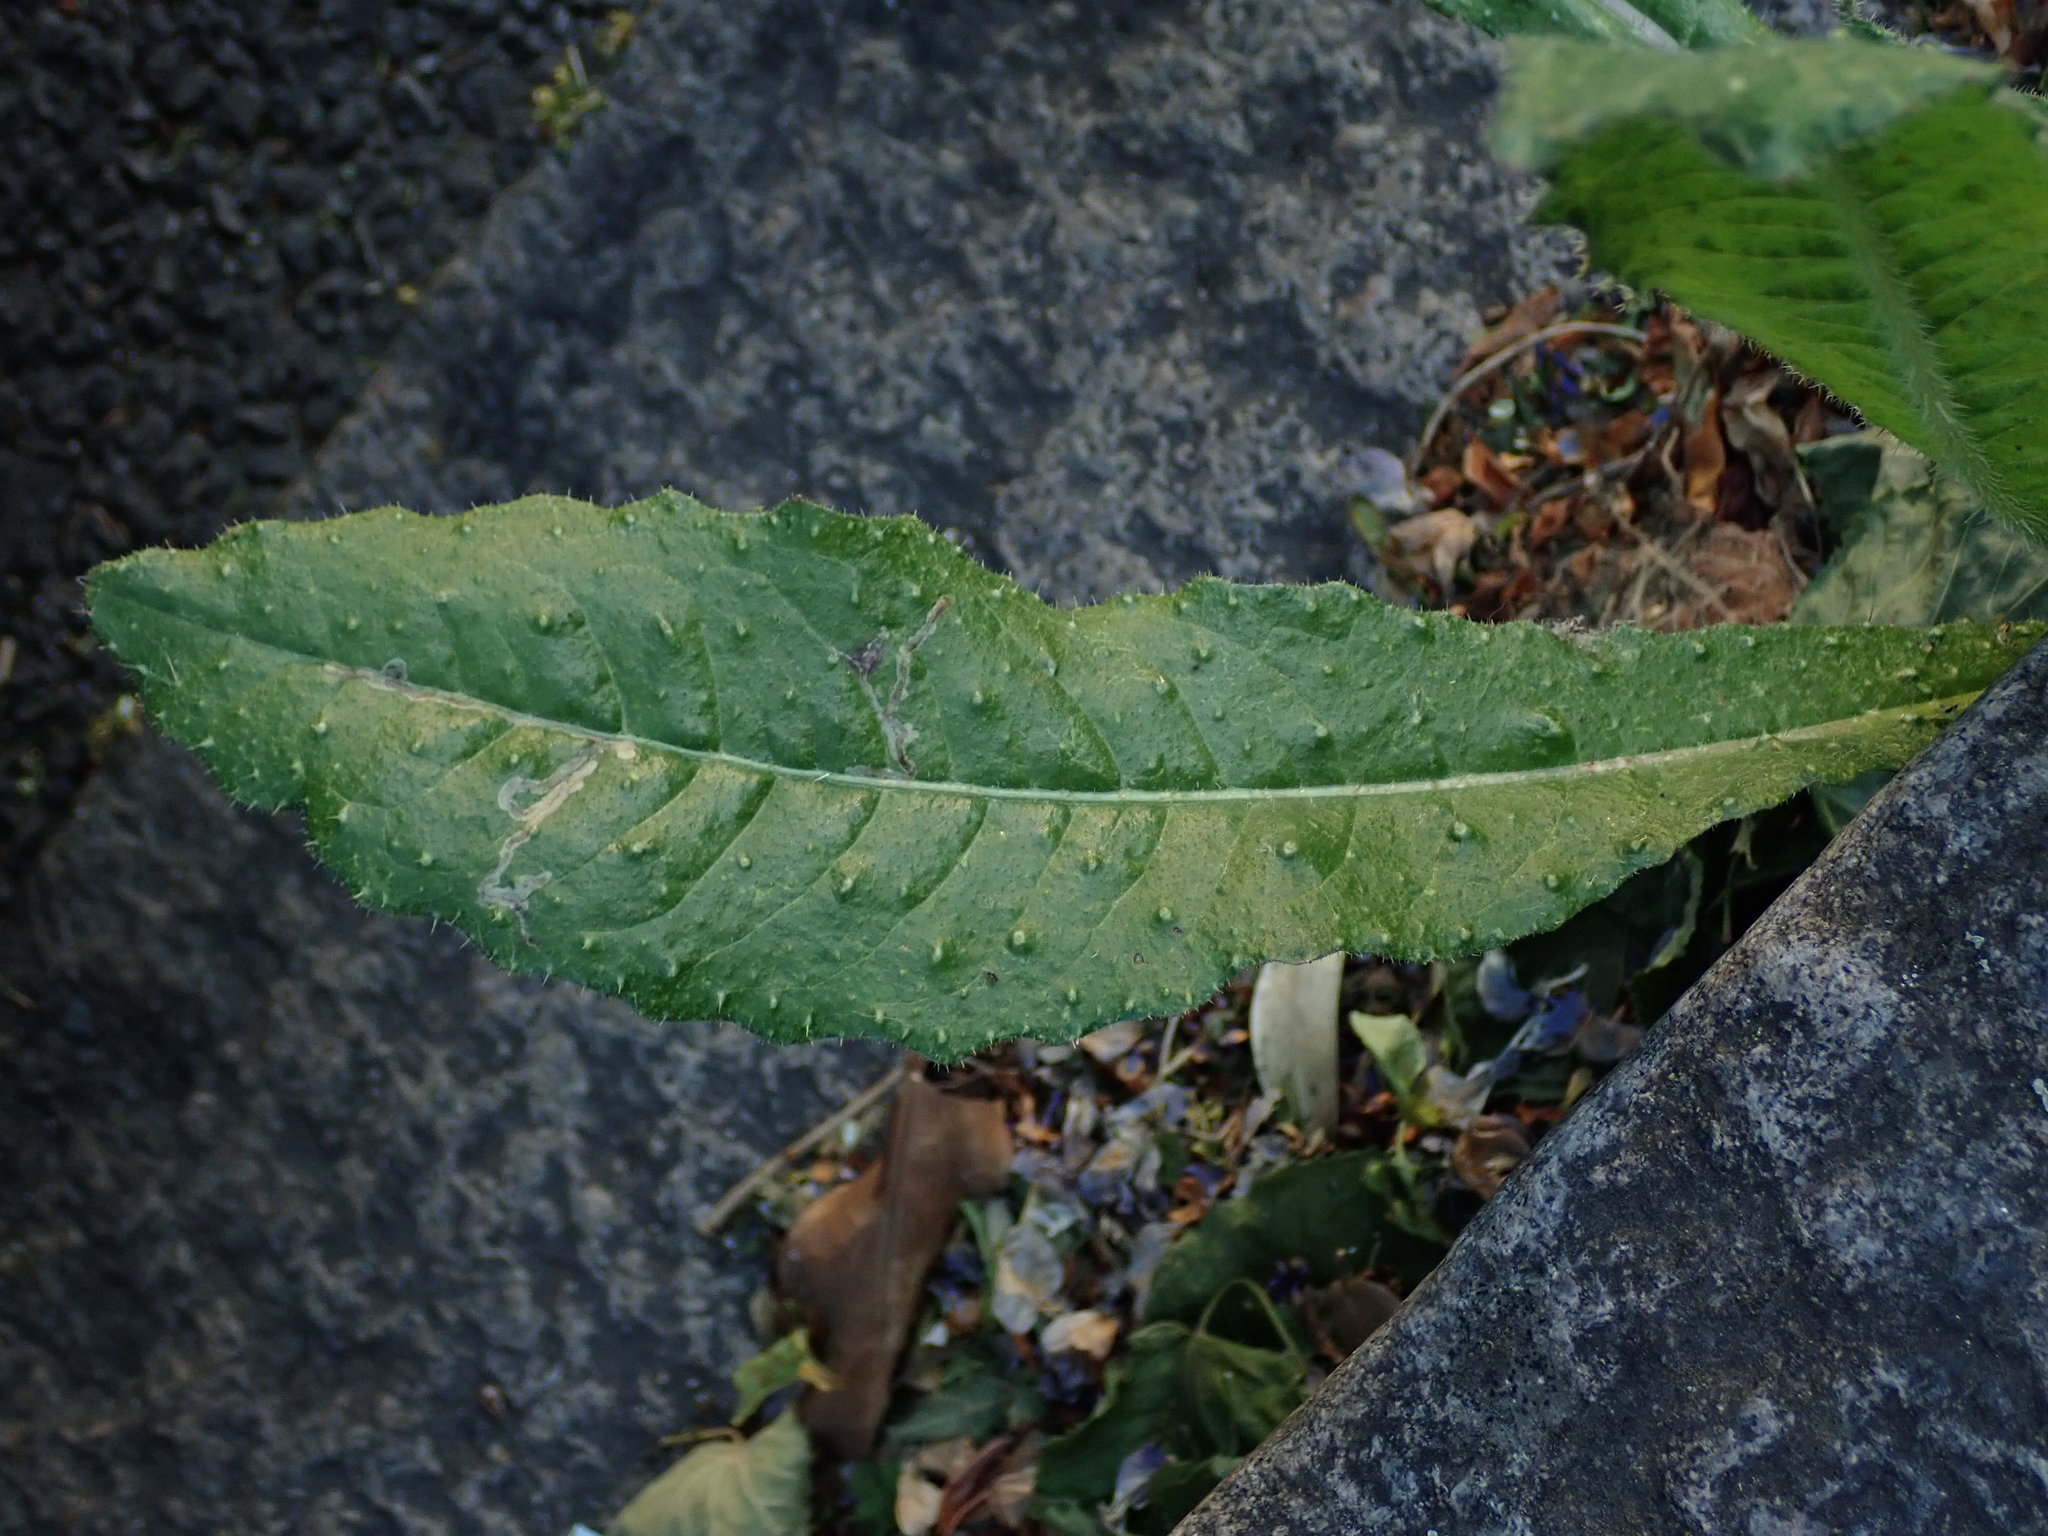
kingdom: Plantae
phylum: Tracheophyta
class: Magnoliopsida
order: Asterales
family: Asteraceae
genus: Helminthotheca
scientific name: Helminthotheca echioides
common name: Ox-tongue
